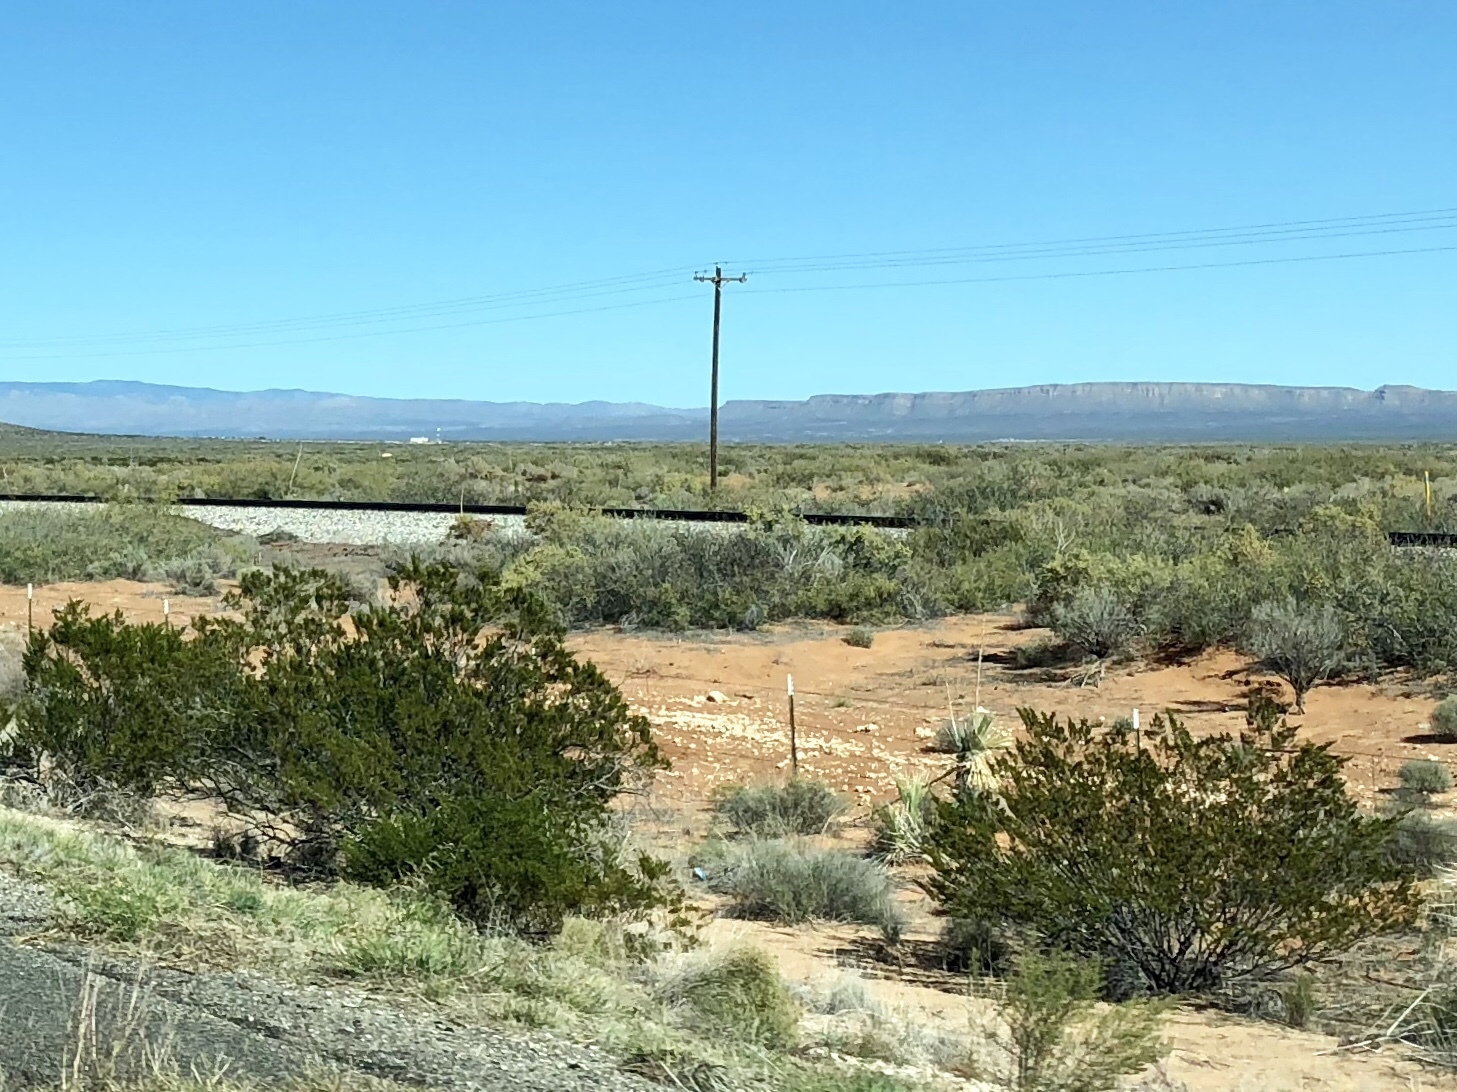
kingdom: Plantae
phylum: Tracheophyta
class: Magnoliopsida
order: Zygophyllales
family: Zygophyllaceae
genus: Larrea
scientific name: Larrea tridentata
